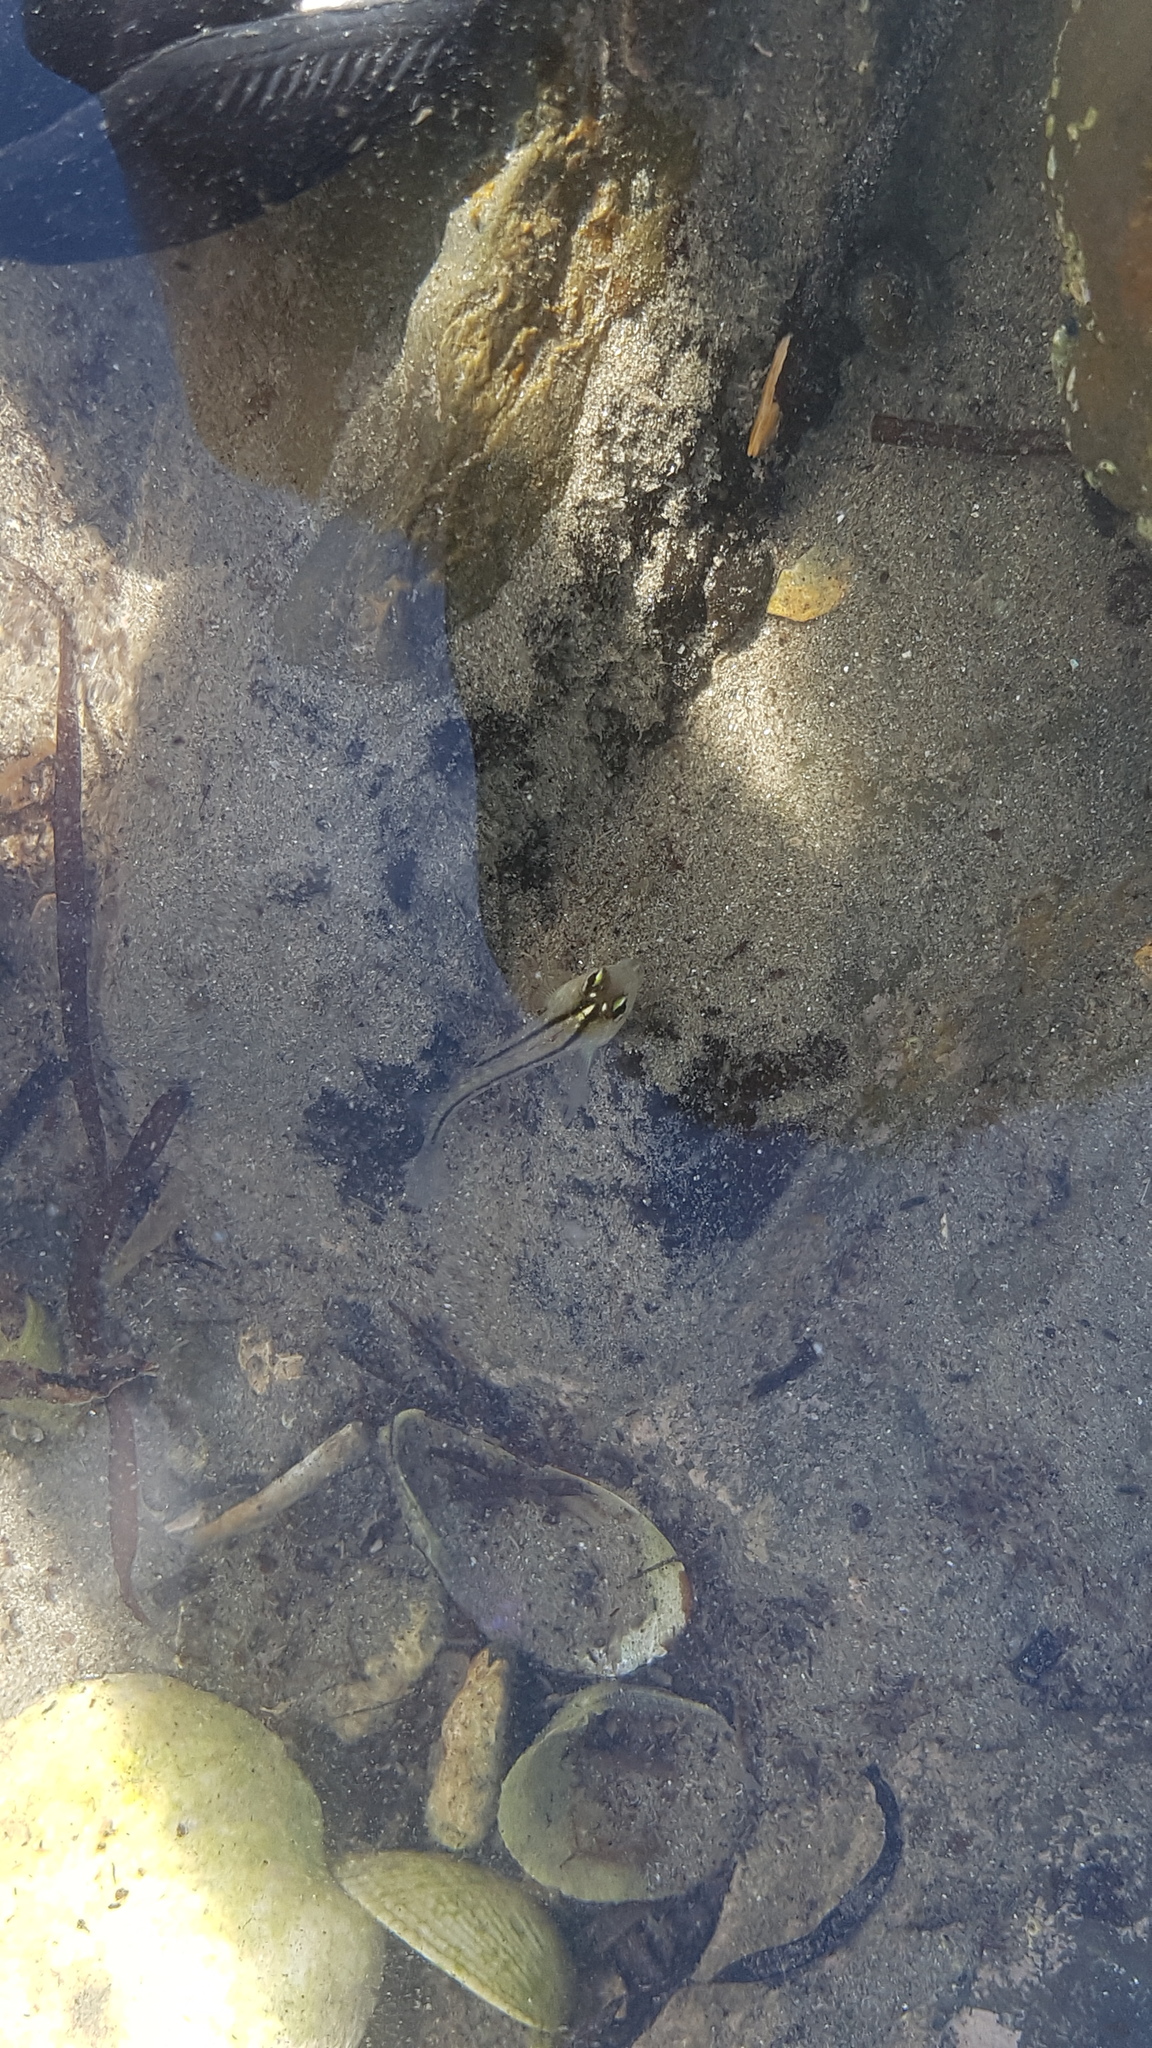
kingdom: Animalia
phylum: Chordata
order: Perciformes
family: Tripterygiidae
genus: Forsterygion
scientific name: Forsterygion lapillum
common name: Common triplefin
